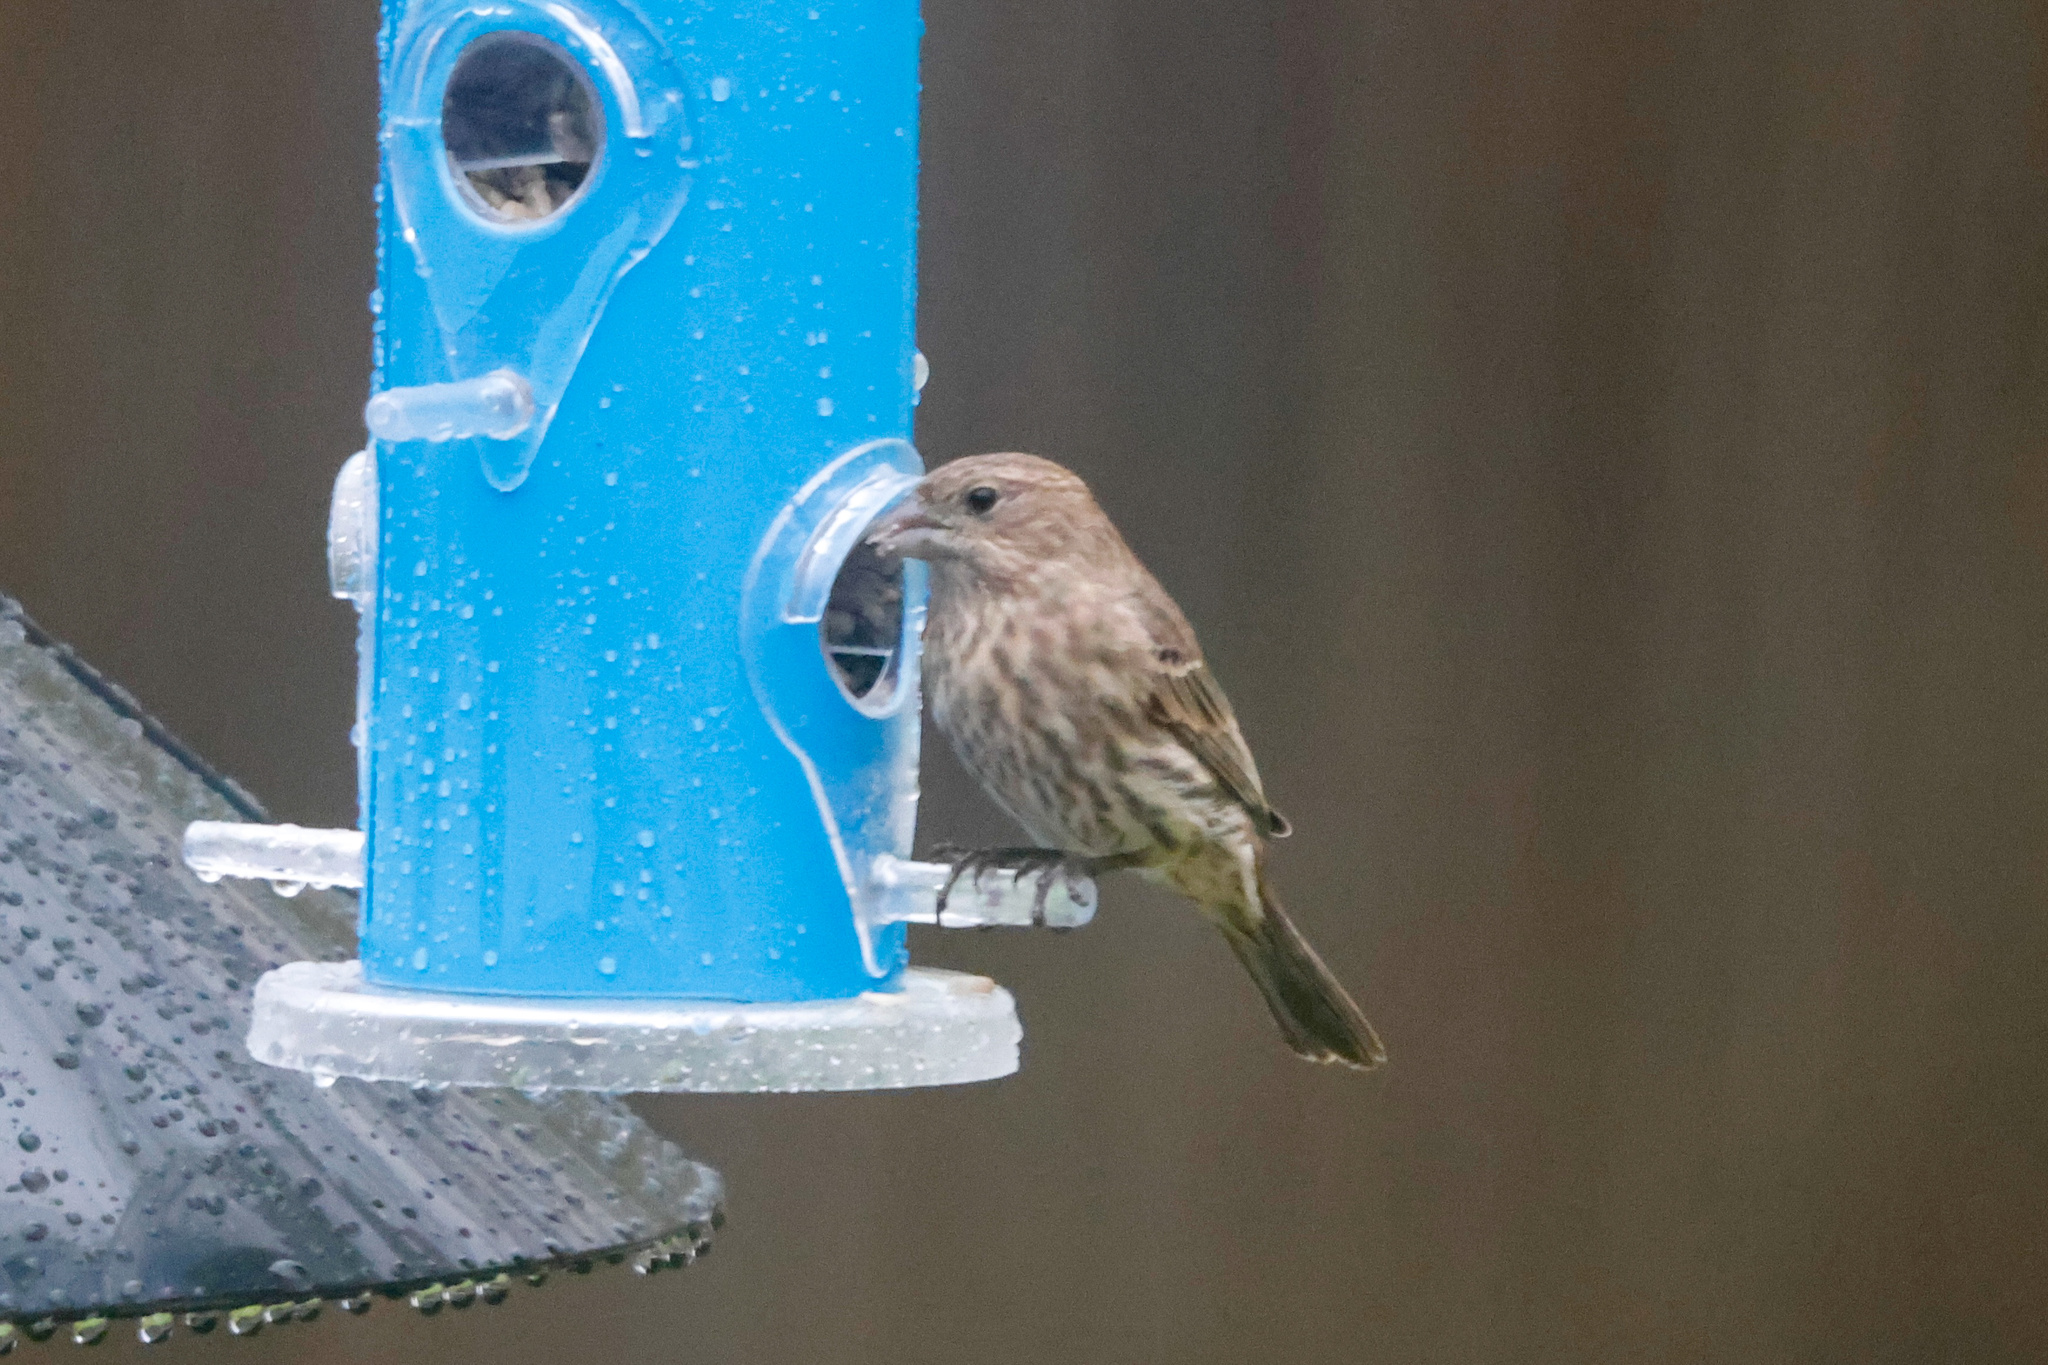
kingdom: Animalia
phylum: Chordata
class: Aves
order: Passeriformes
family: Fringillidae
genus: Haemorhous
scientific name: Haemorhous mexicanus
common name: House finch
